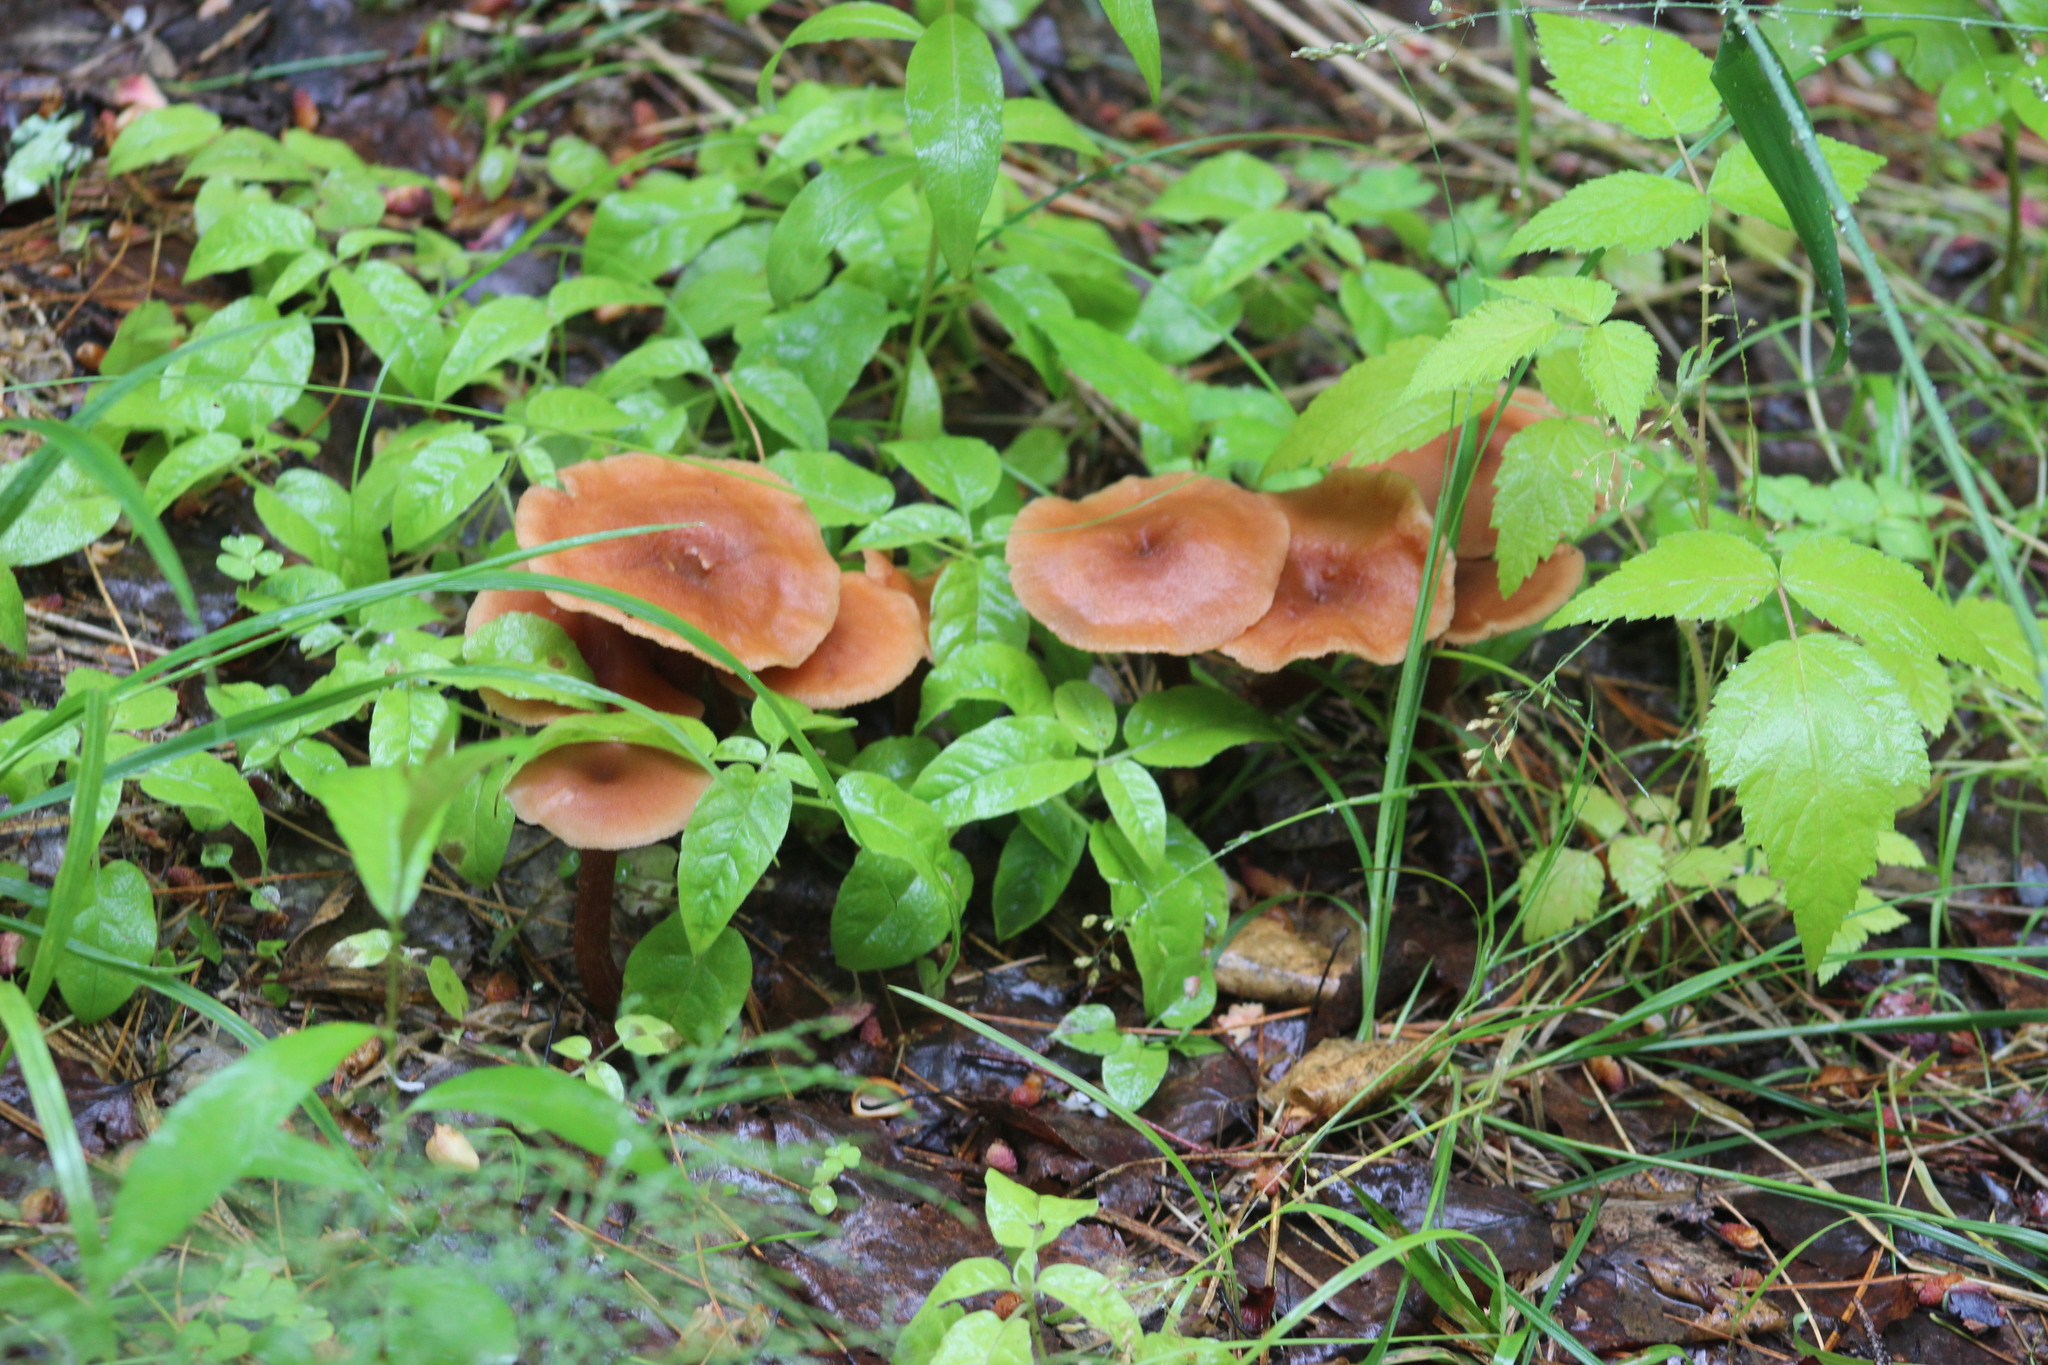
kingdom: Fungi
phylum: Basidiomycota
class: Agaricomycetes
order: Agaricales
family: Hydnangiaceae
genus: Laccaria
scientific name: Laccaria proxima
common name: Scurfy deceiver
